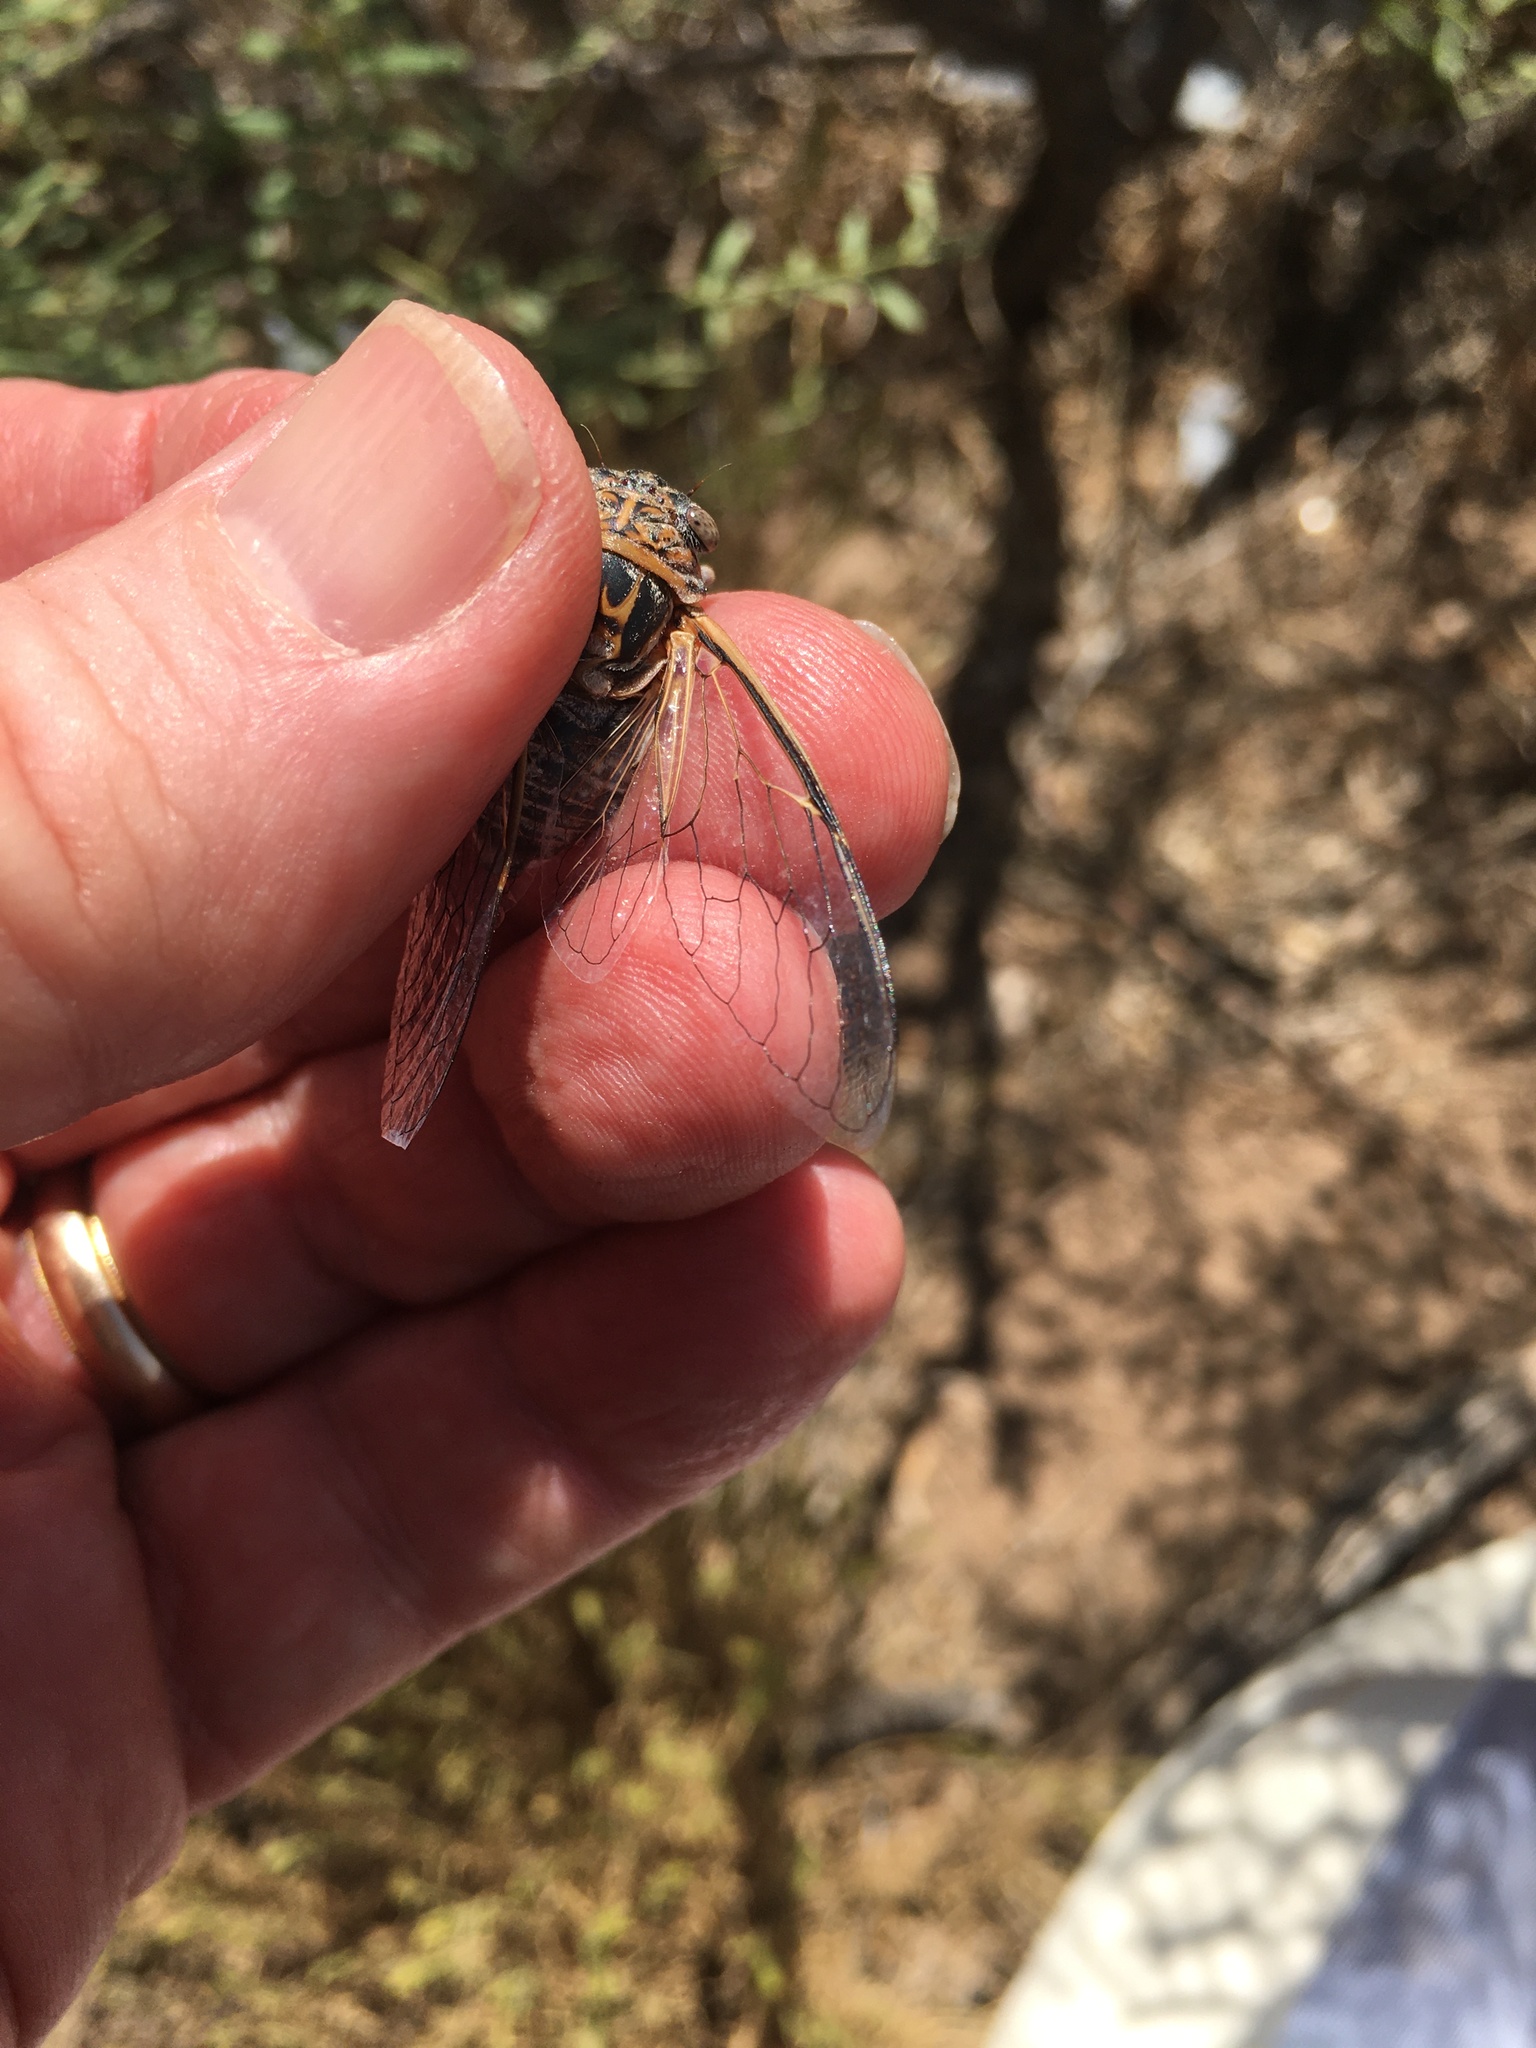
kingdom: Animalia
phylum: Arthropoda
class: Insecta
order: Hemiptera
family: Cicadidae
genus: Diceroprocta
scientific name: Diceroprocta eugraphica
